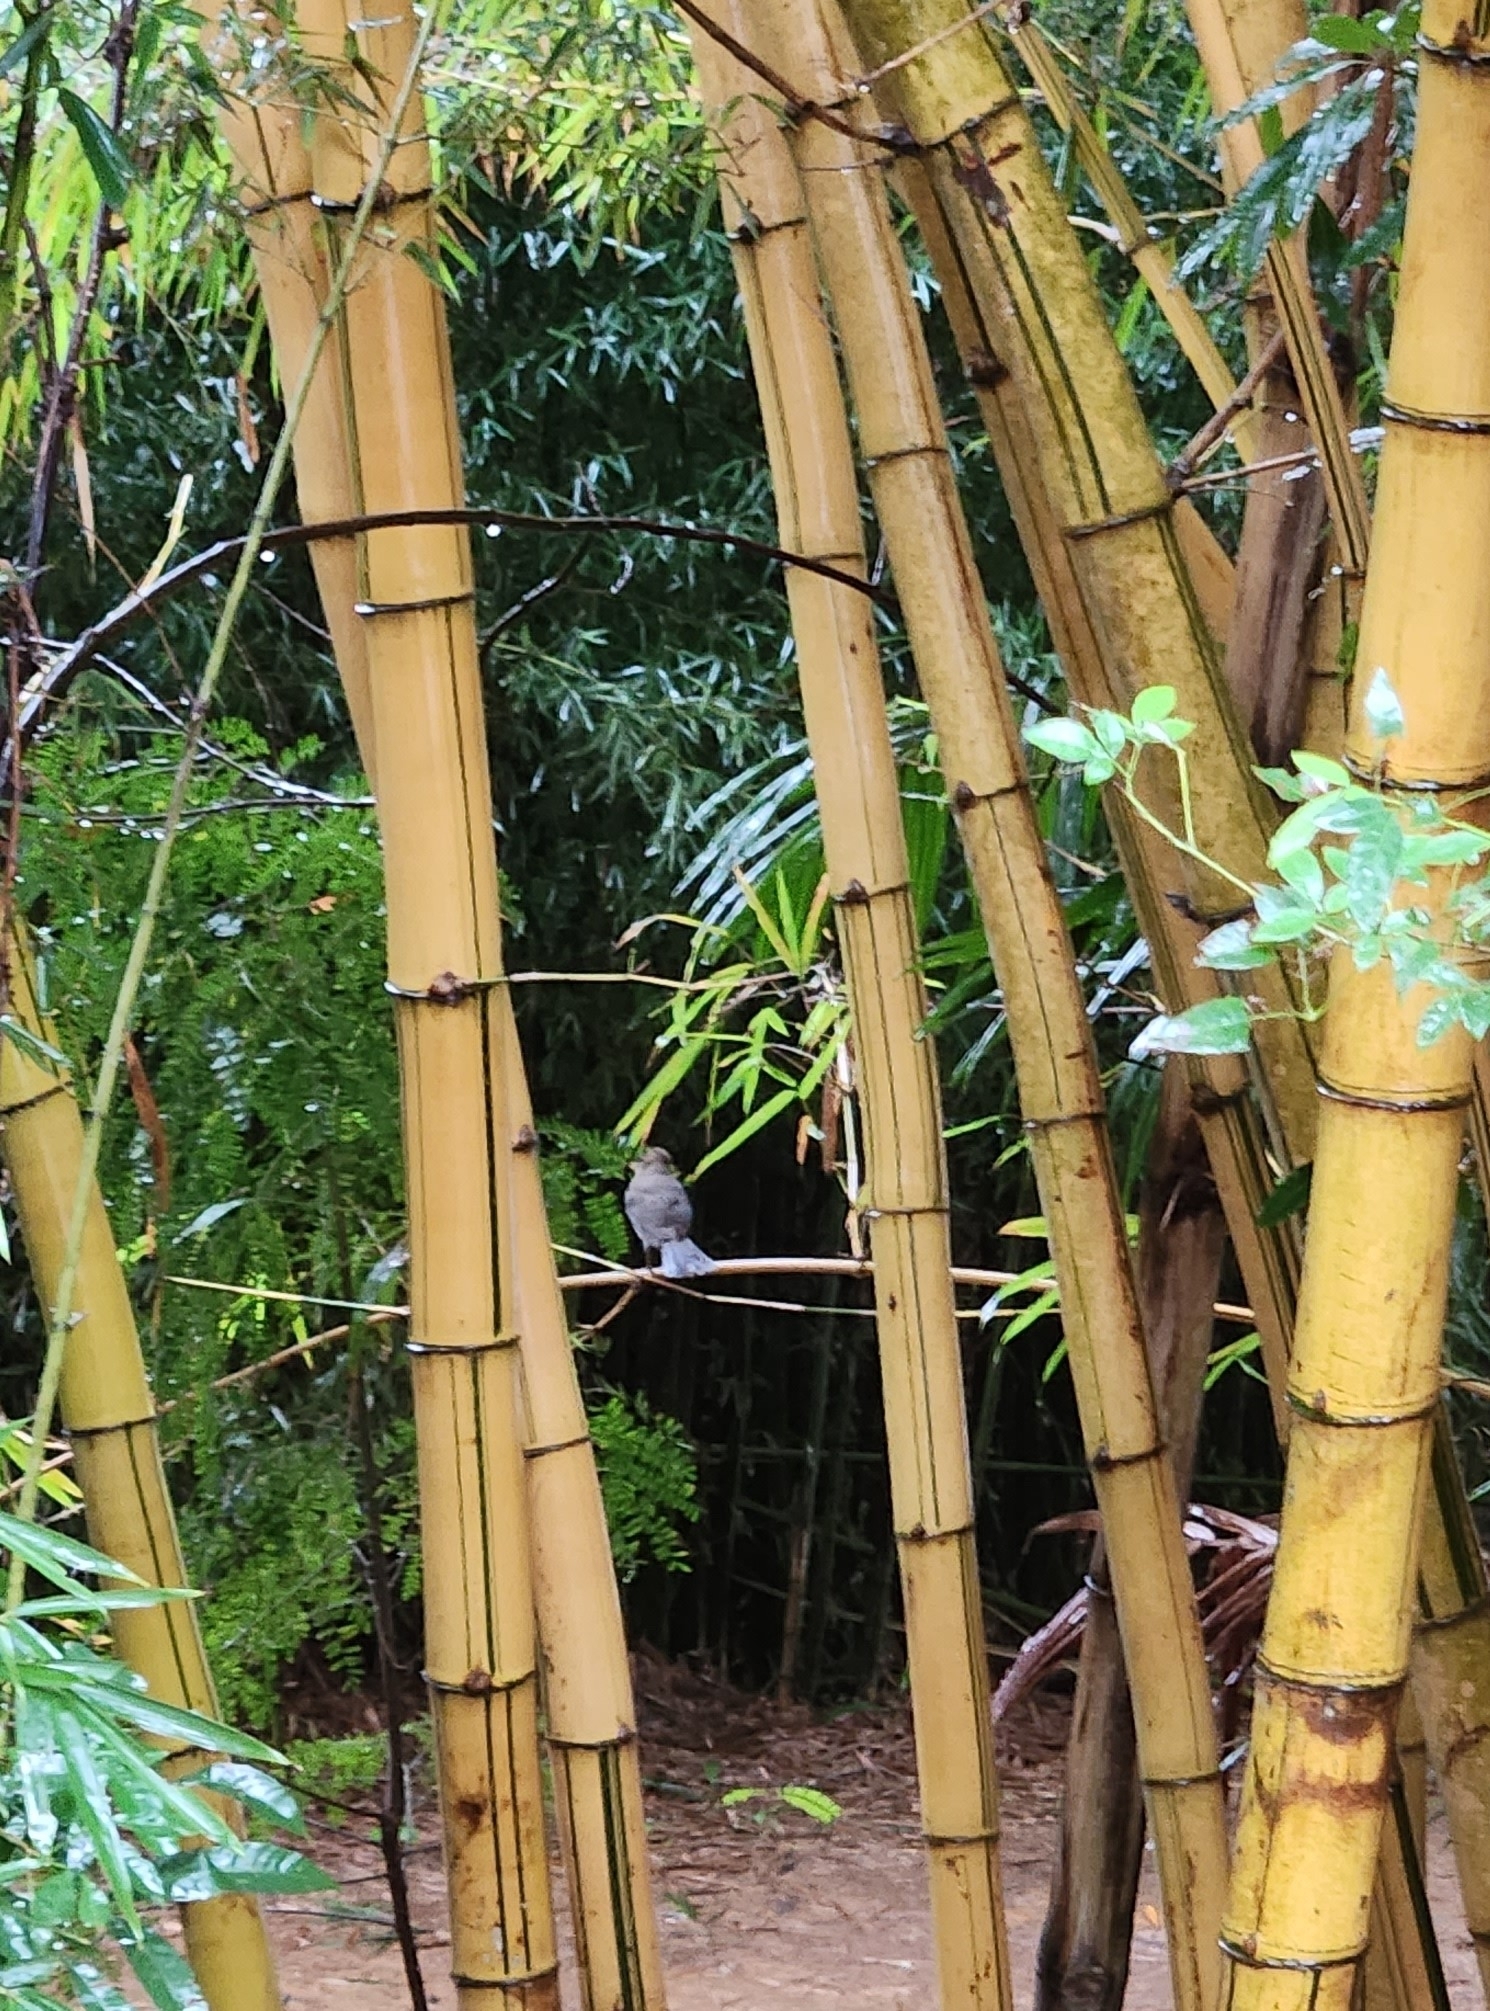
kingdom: Animalia
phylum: Chordata
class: Aves
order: Passeriformes
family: Turdidae
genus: Turdus
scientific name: Turdus amaurochalinus
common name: Creamy-bellied thrush
